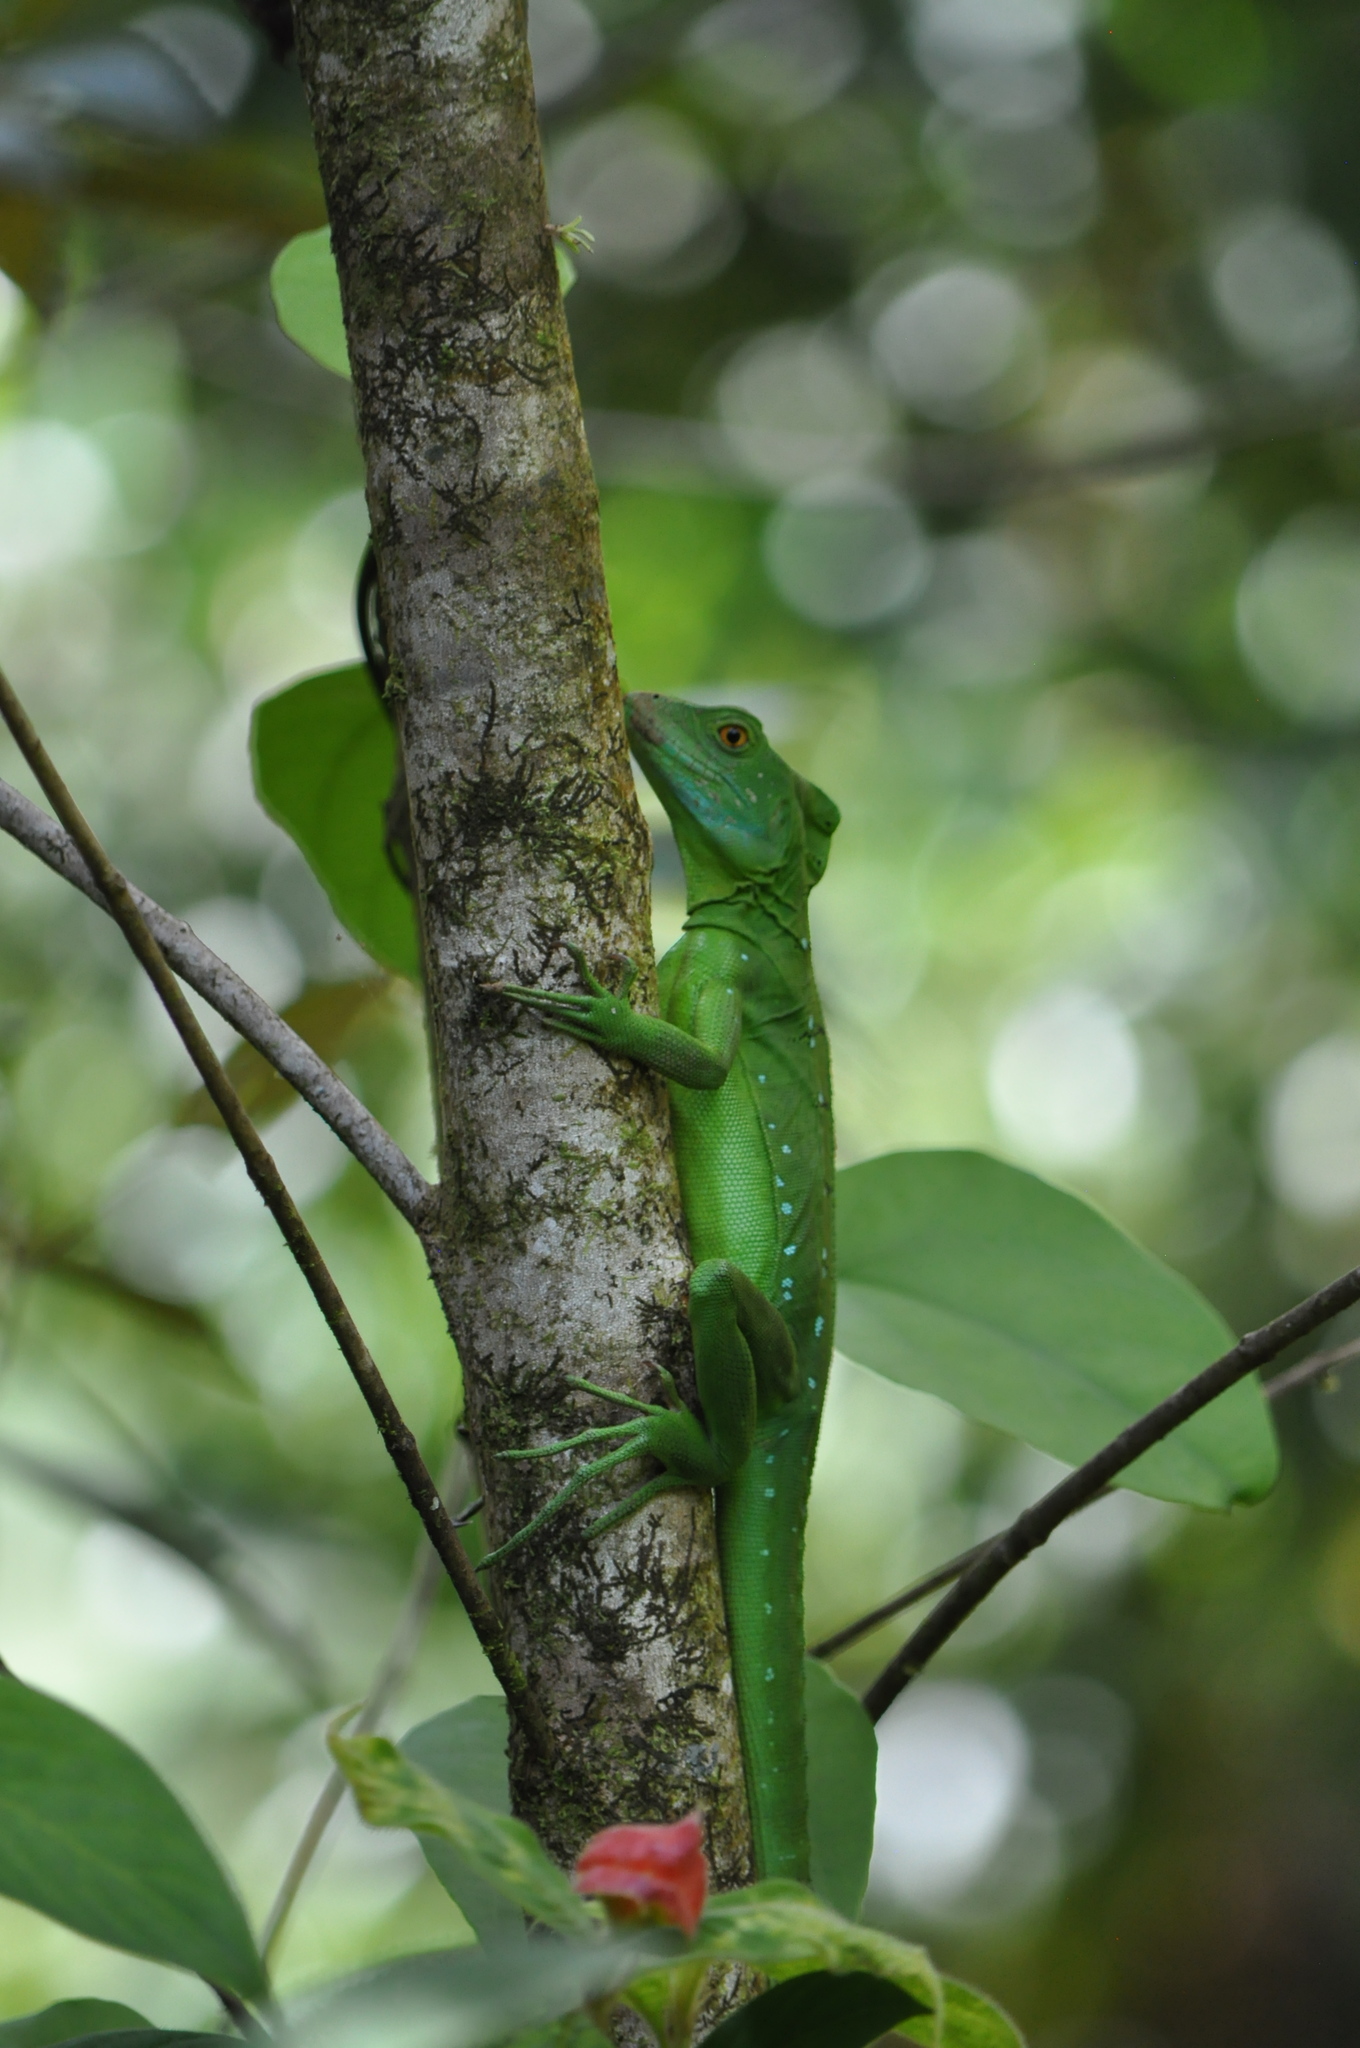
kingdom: Animalia
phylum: Chordata
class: Squamata
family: Corytophanidae
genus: Basiliscus
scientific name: Basiliscus plumifrons
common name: Green basilisk
